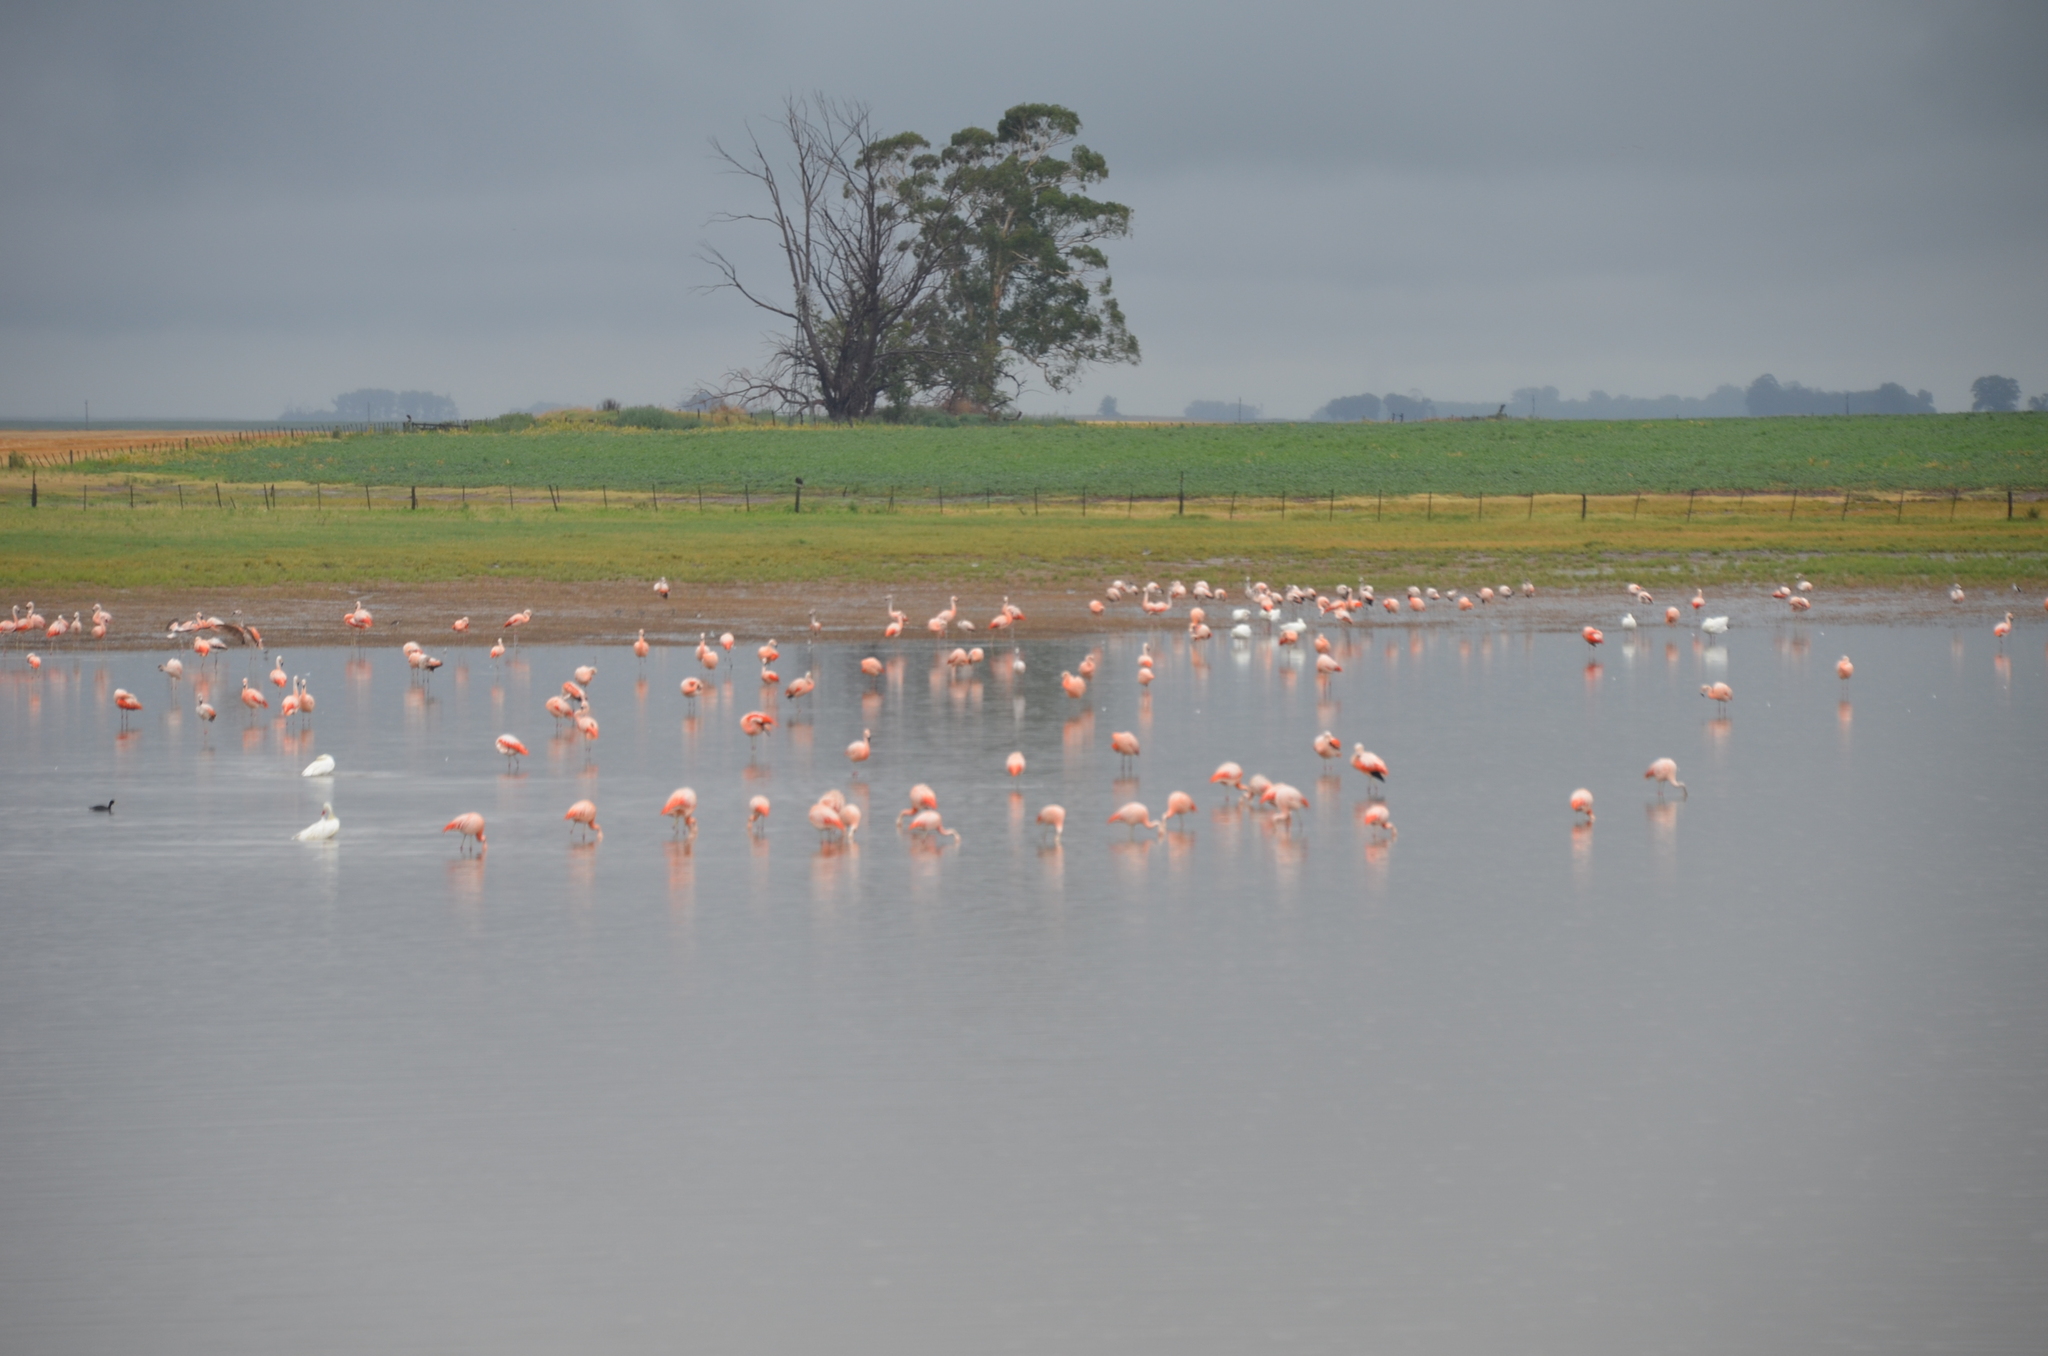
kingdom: Animalia
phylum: Chordata
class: Aves
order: Phoenicopteriformes
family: Phoenicopteridae
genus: Phoenicopterus
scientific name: Phoenicopterus chilensis
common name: Chilean flamingo
